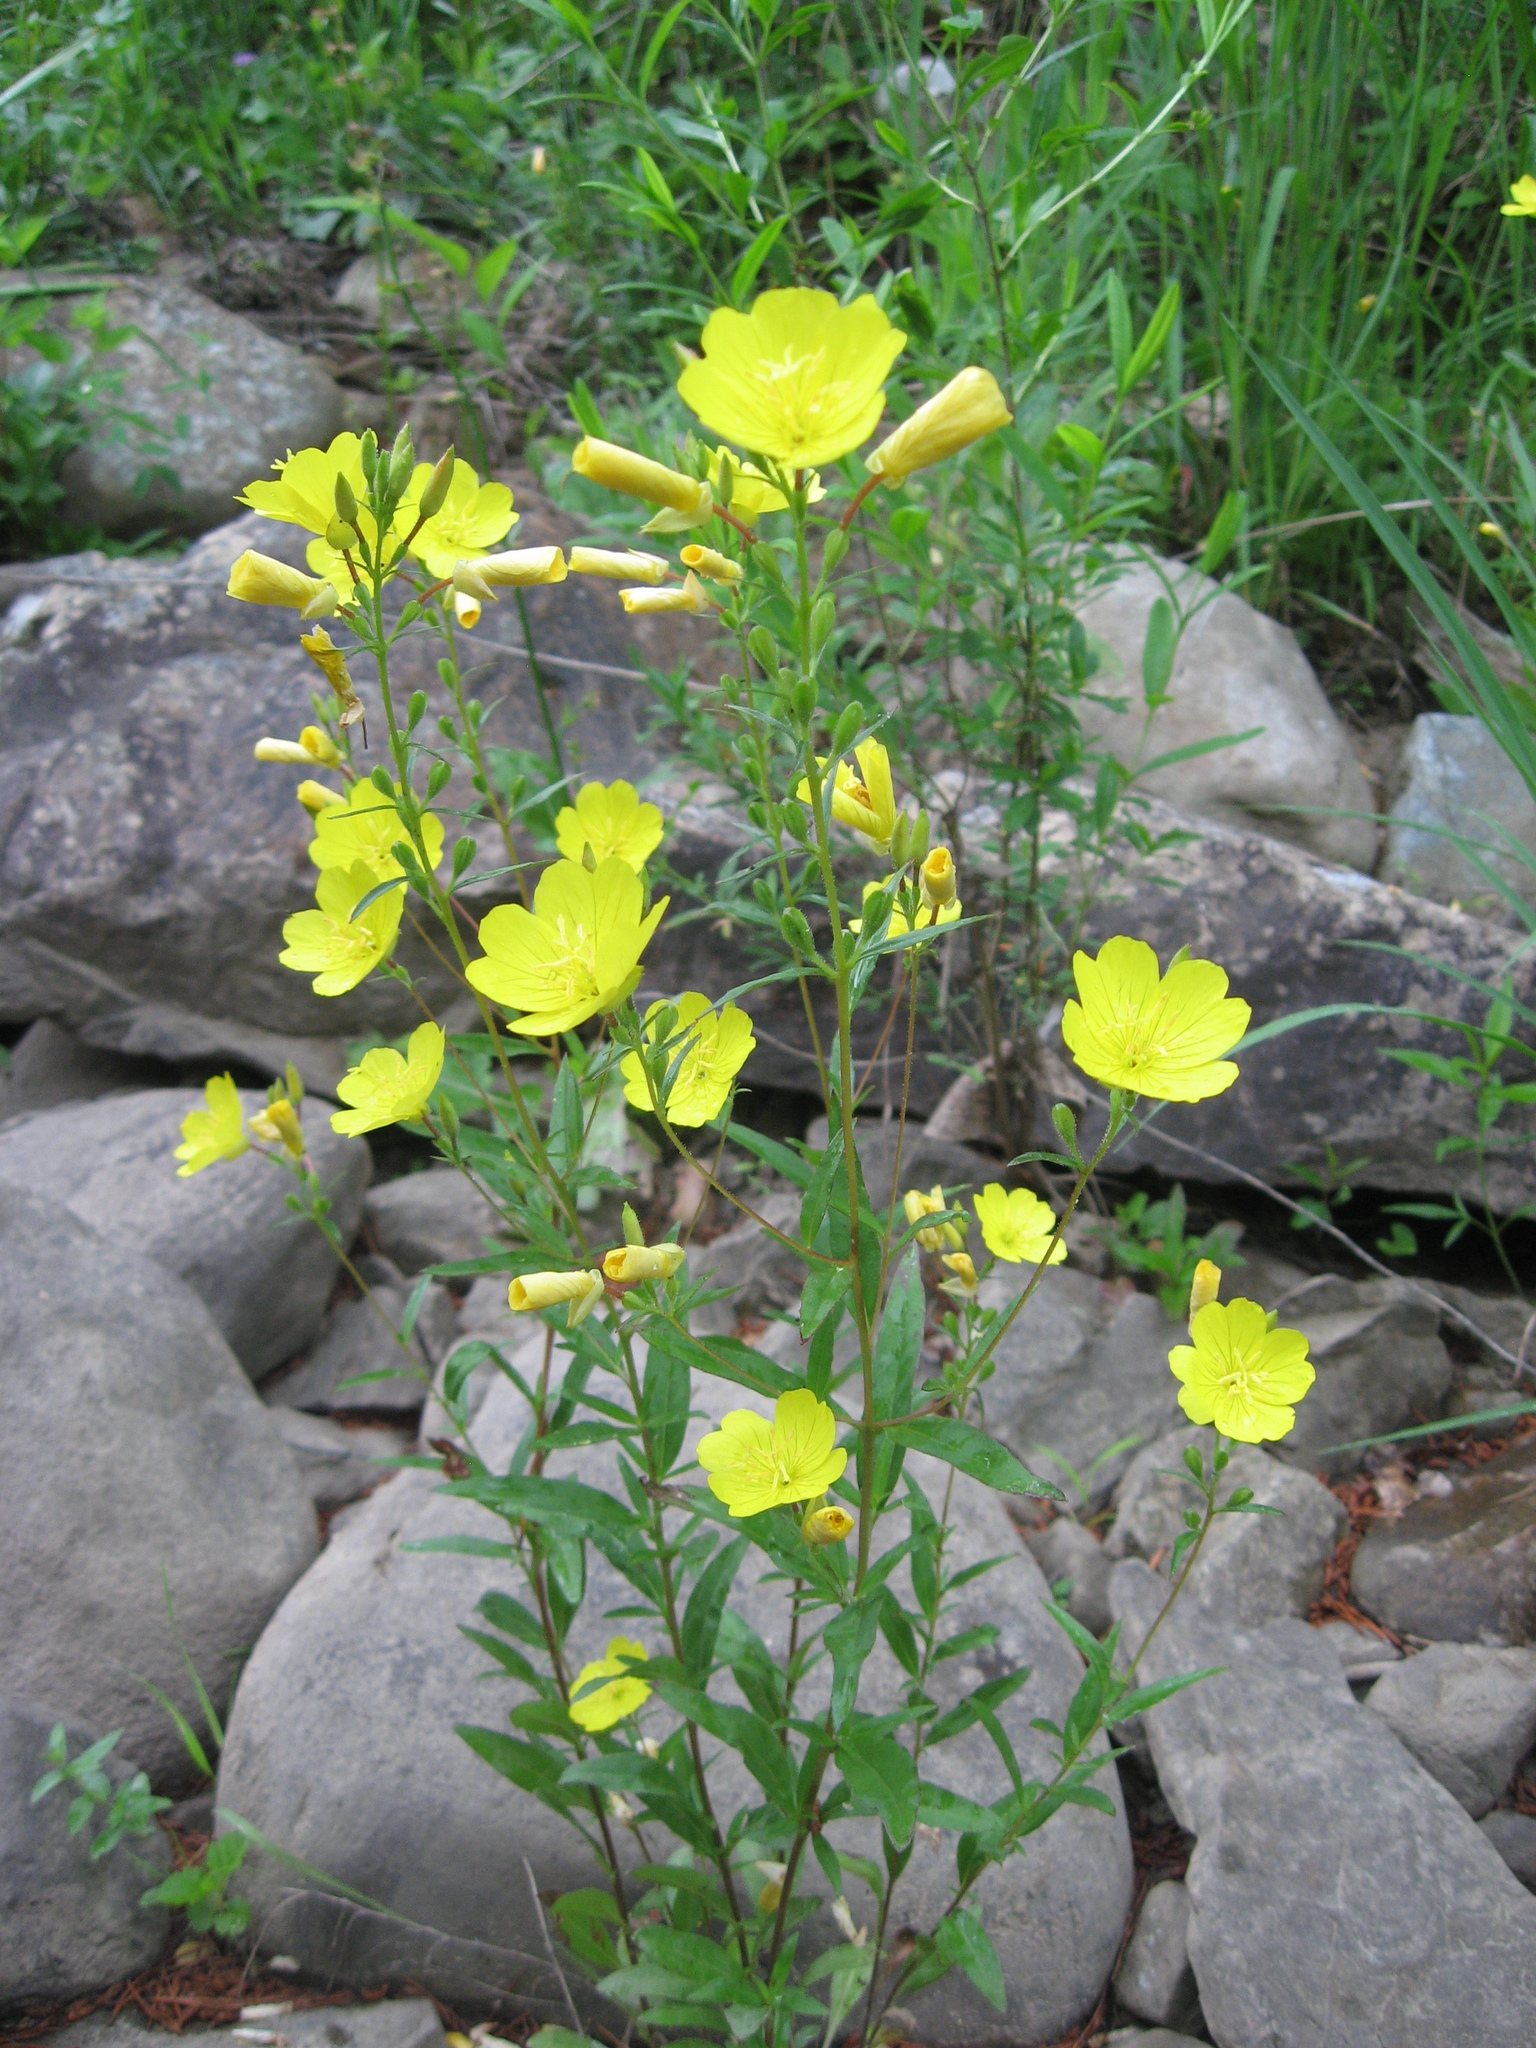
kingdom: Plantae
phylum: Tracheophyta
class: Magnoliopsida
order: Myrtales
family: Onagraceae
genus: Oenothera
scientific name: Oenothera tetragona
